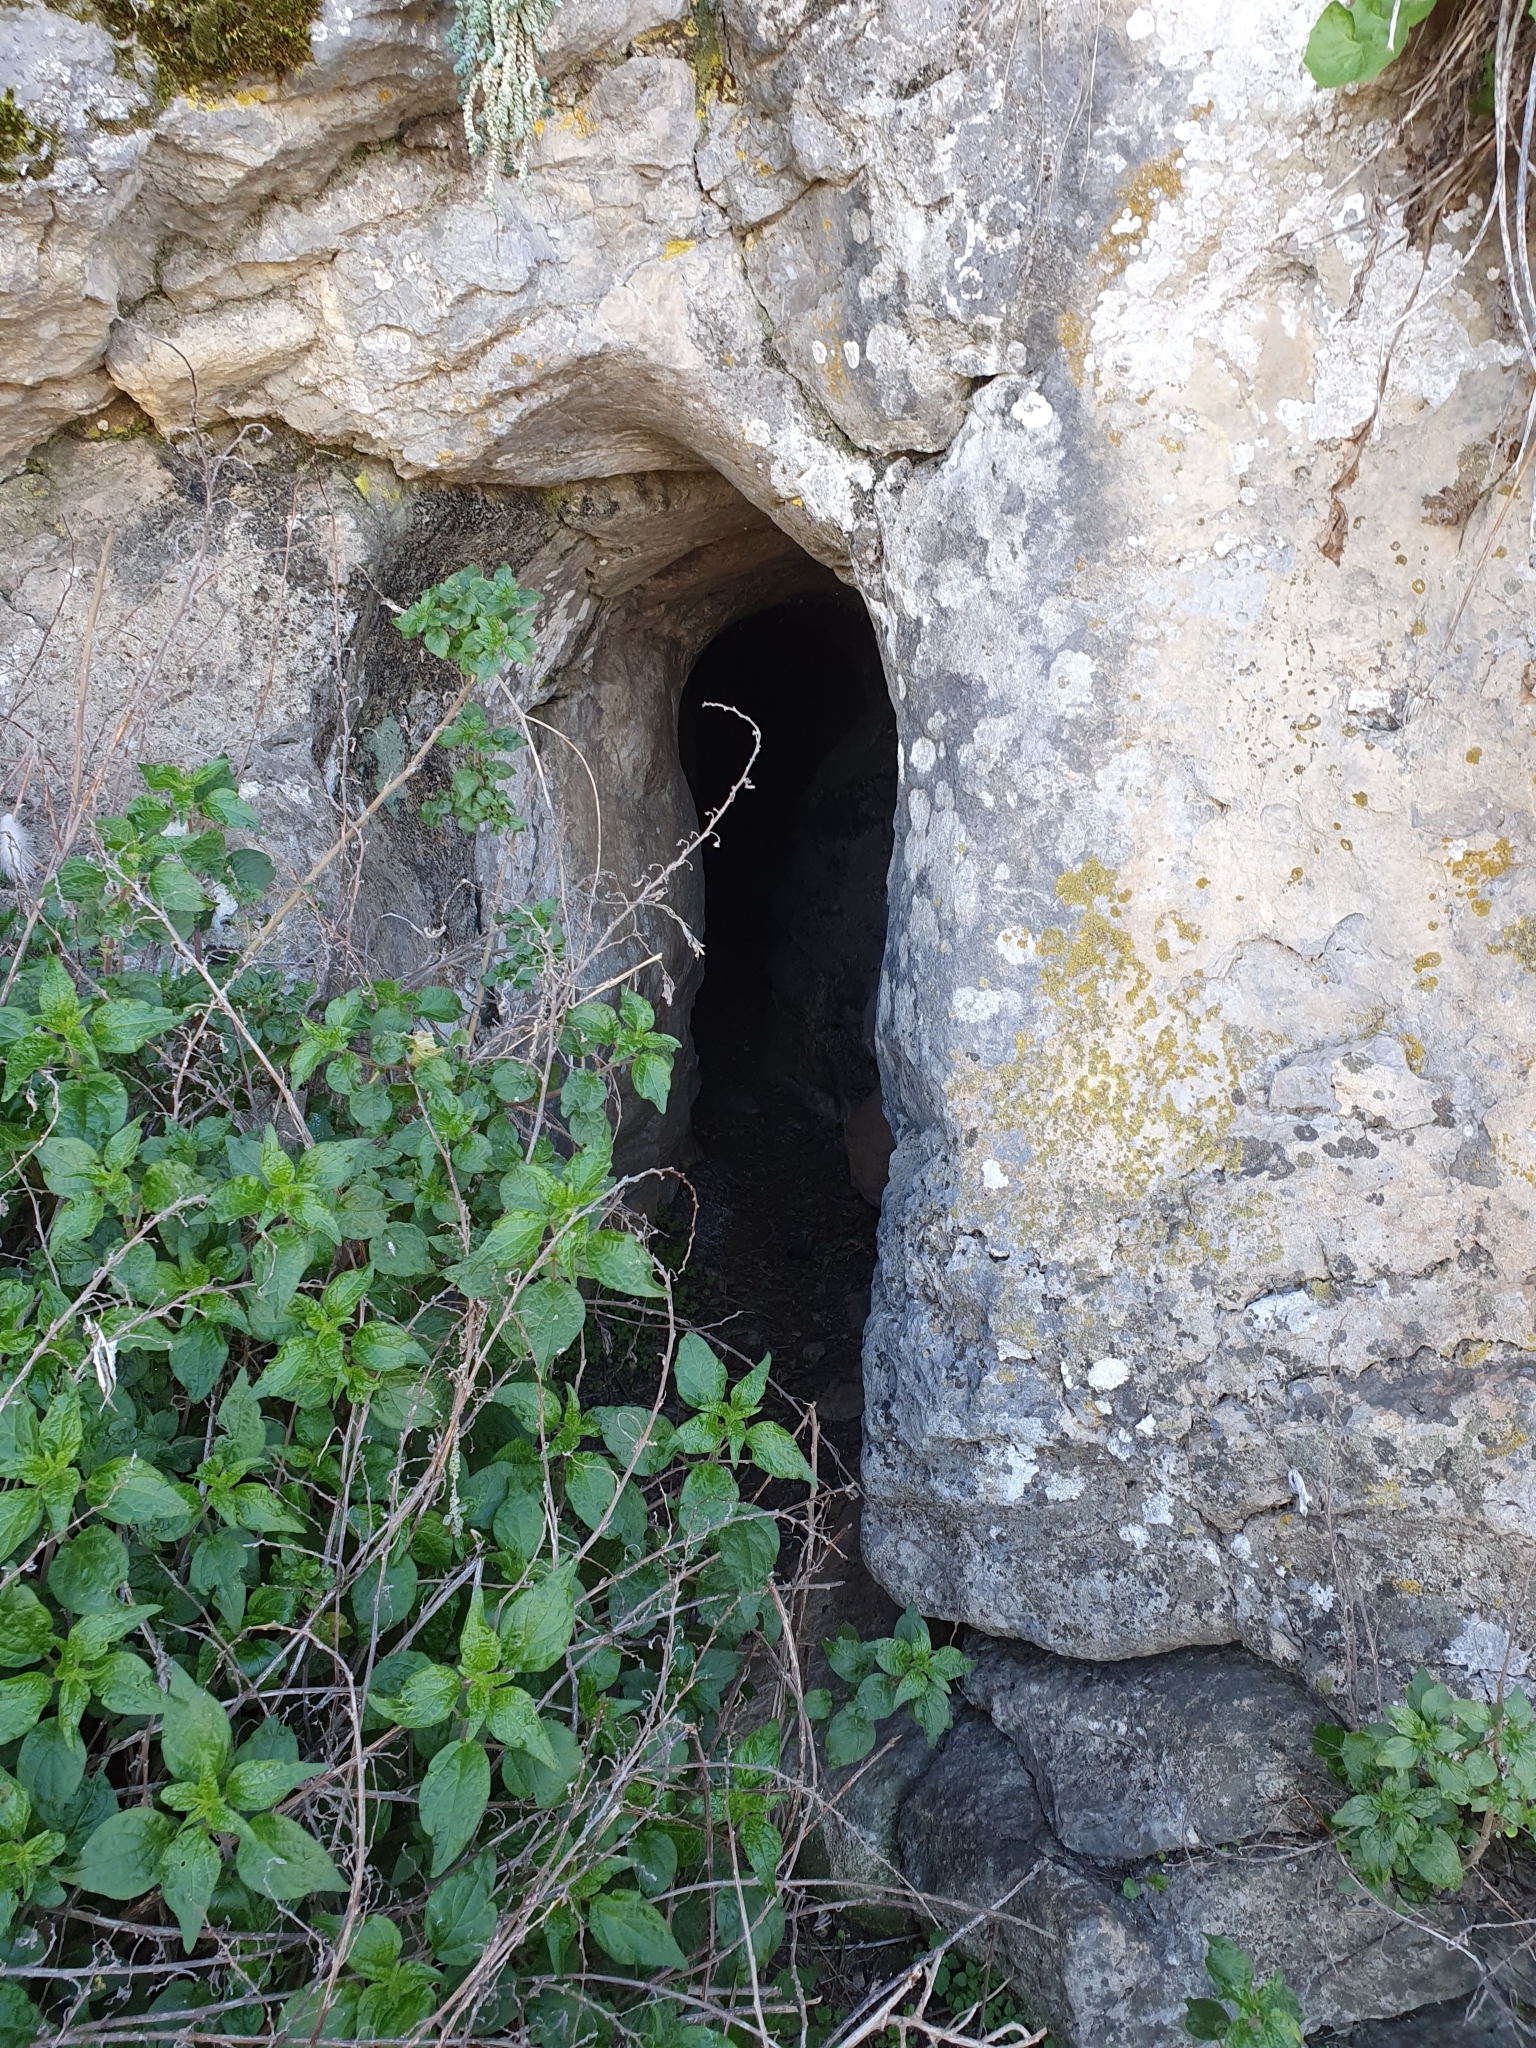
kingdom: Plantae
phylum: Tracheophyta
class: Magnoliopsida
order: Rosales
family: Urticaceae
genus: Parietaria
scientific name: Parietaria judaica
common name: Pellitory-of-the-wall
